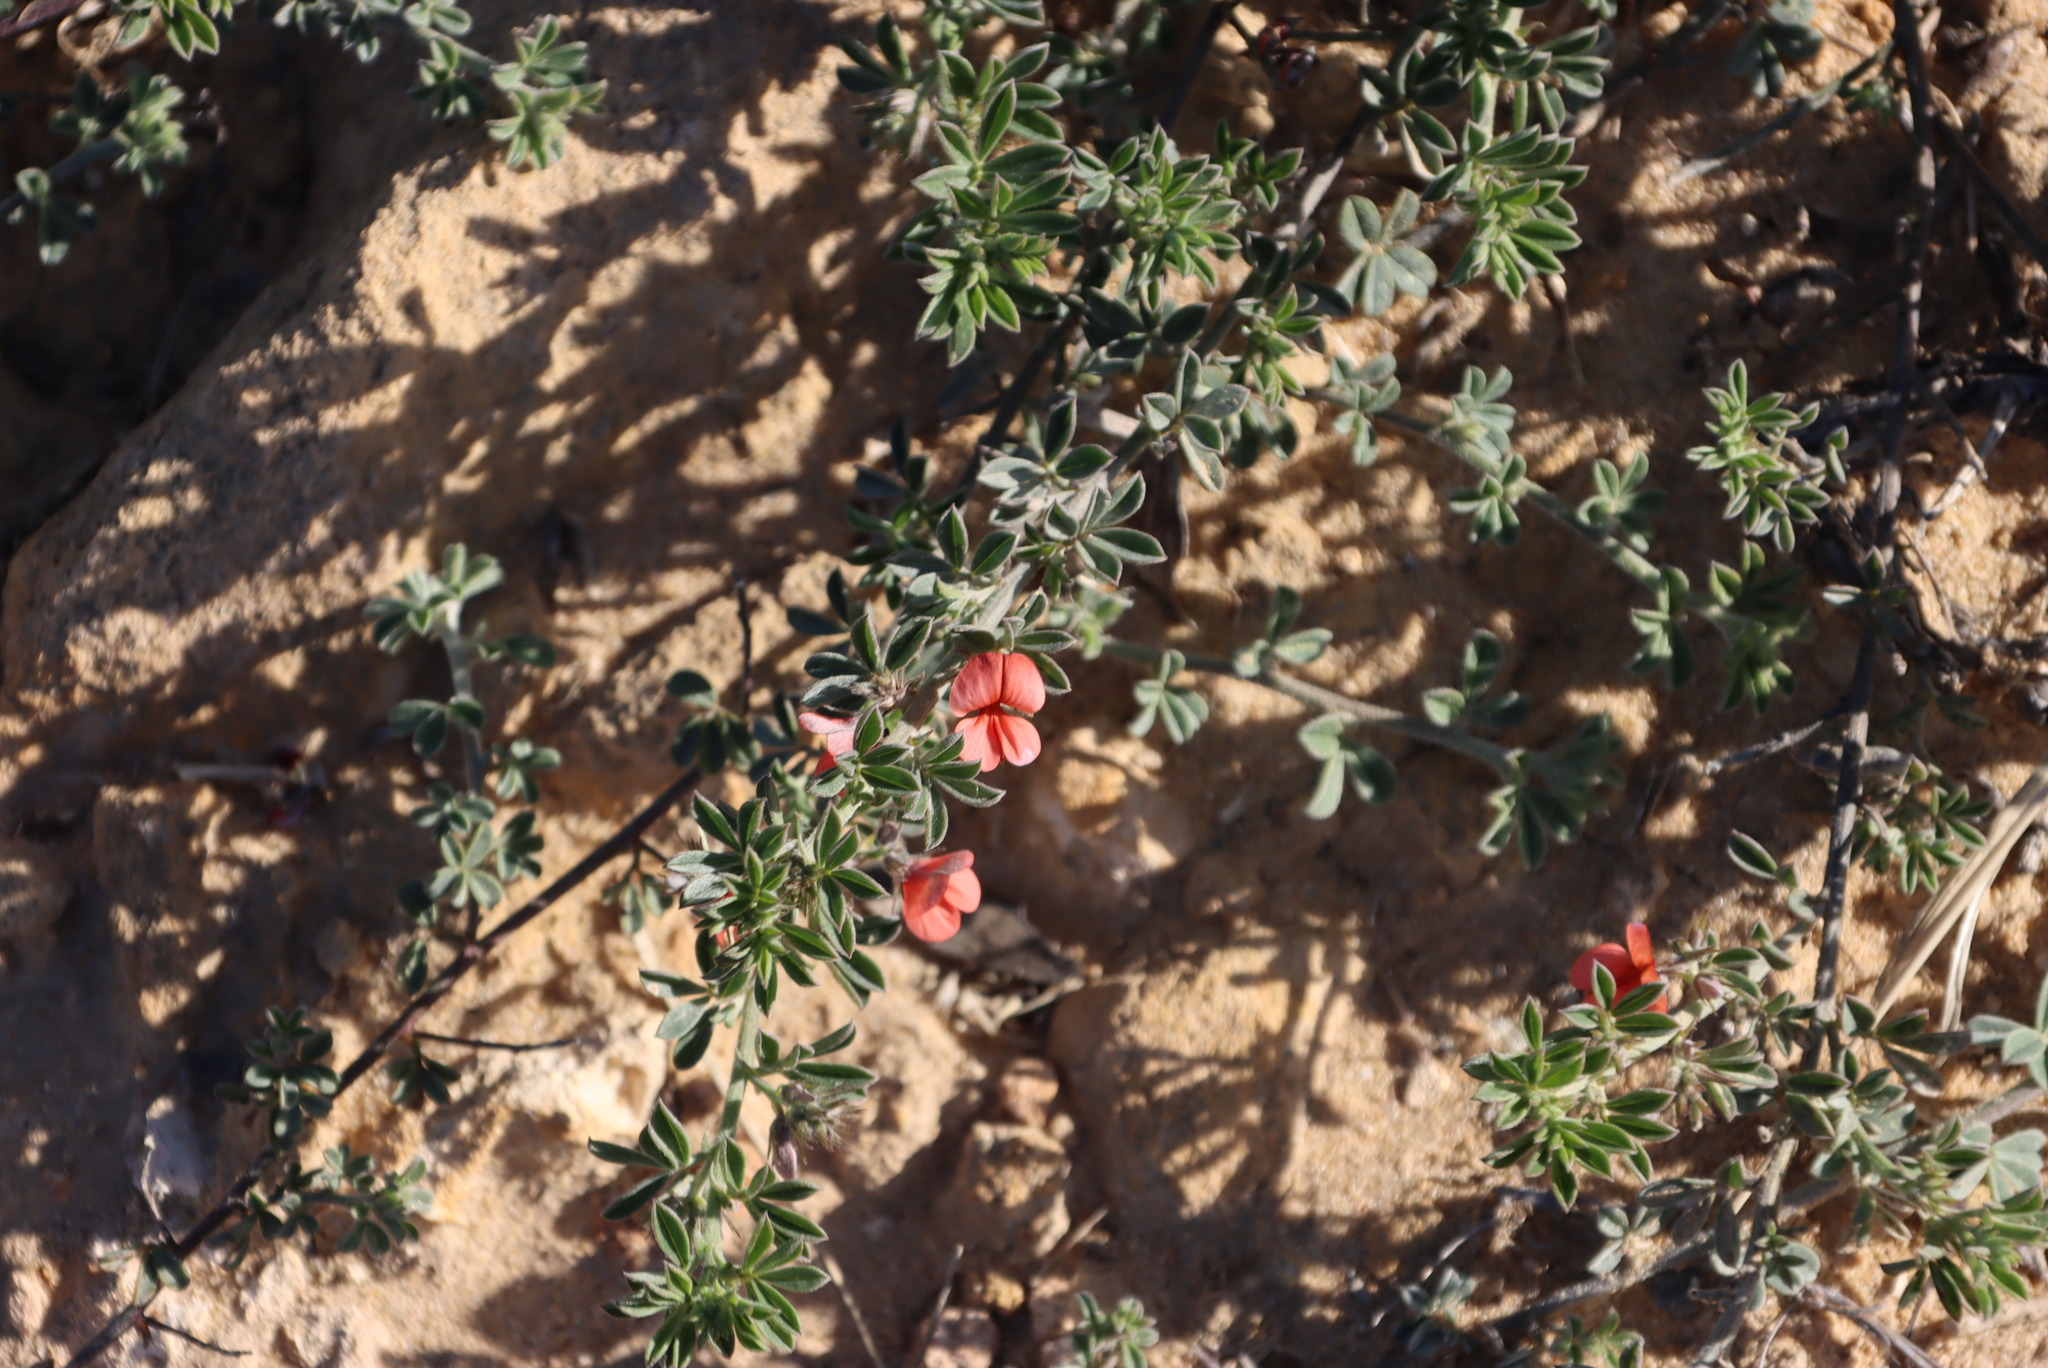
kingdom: Plantae
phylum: Tracheophyta
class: Magnoliopsida
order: Fabales
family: Fabaceae
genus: Indigofera
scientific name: Indigofera priorii
